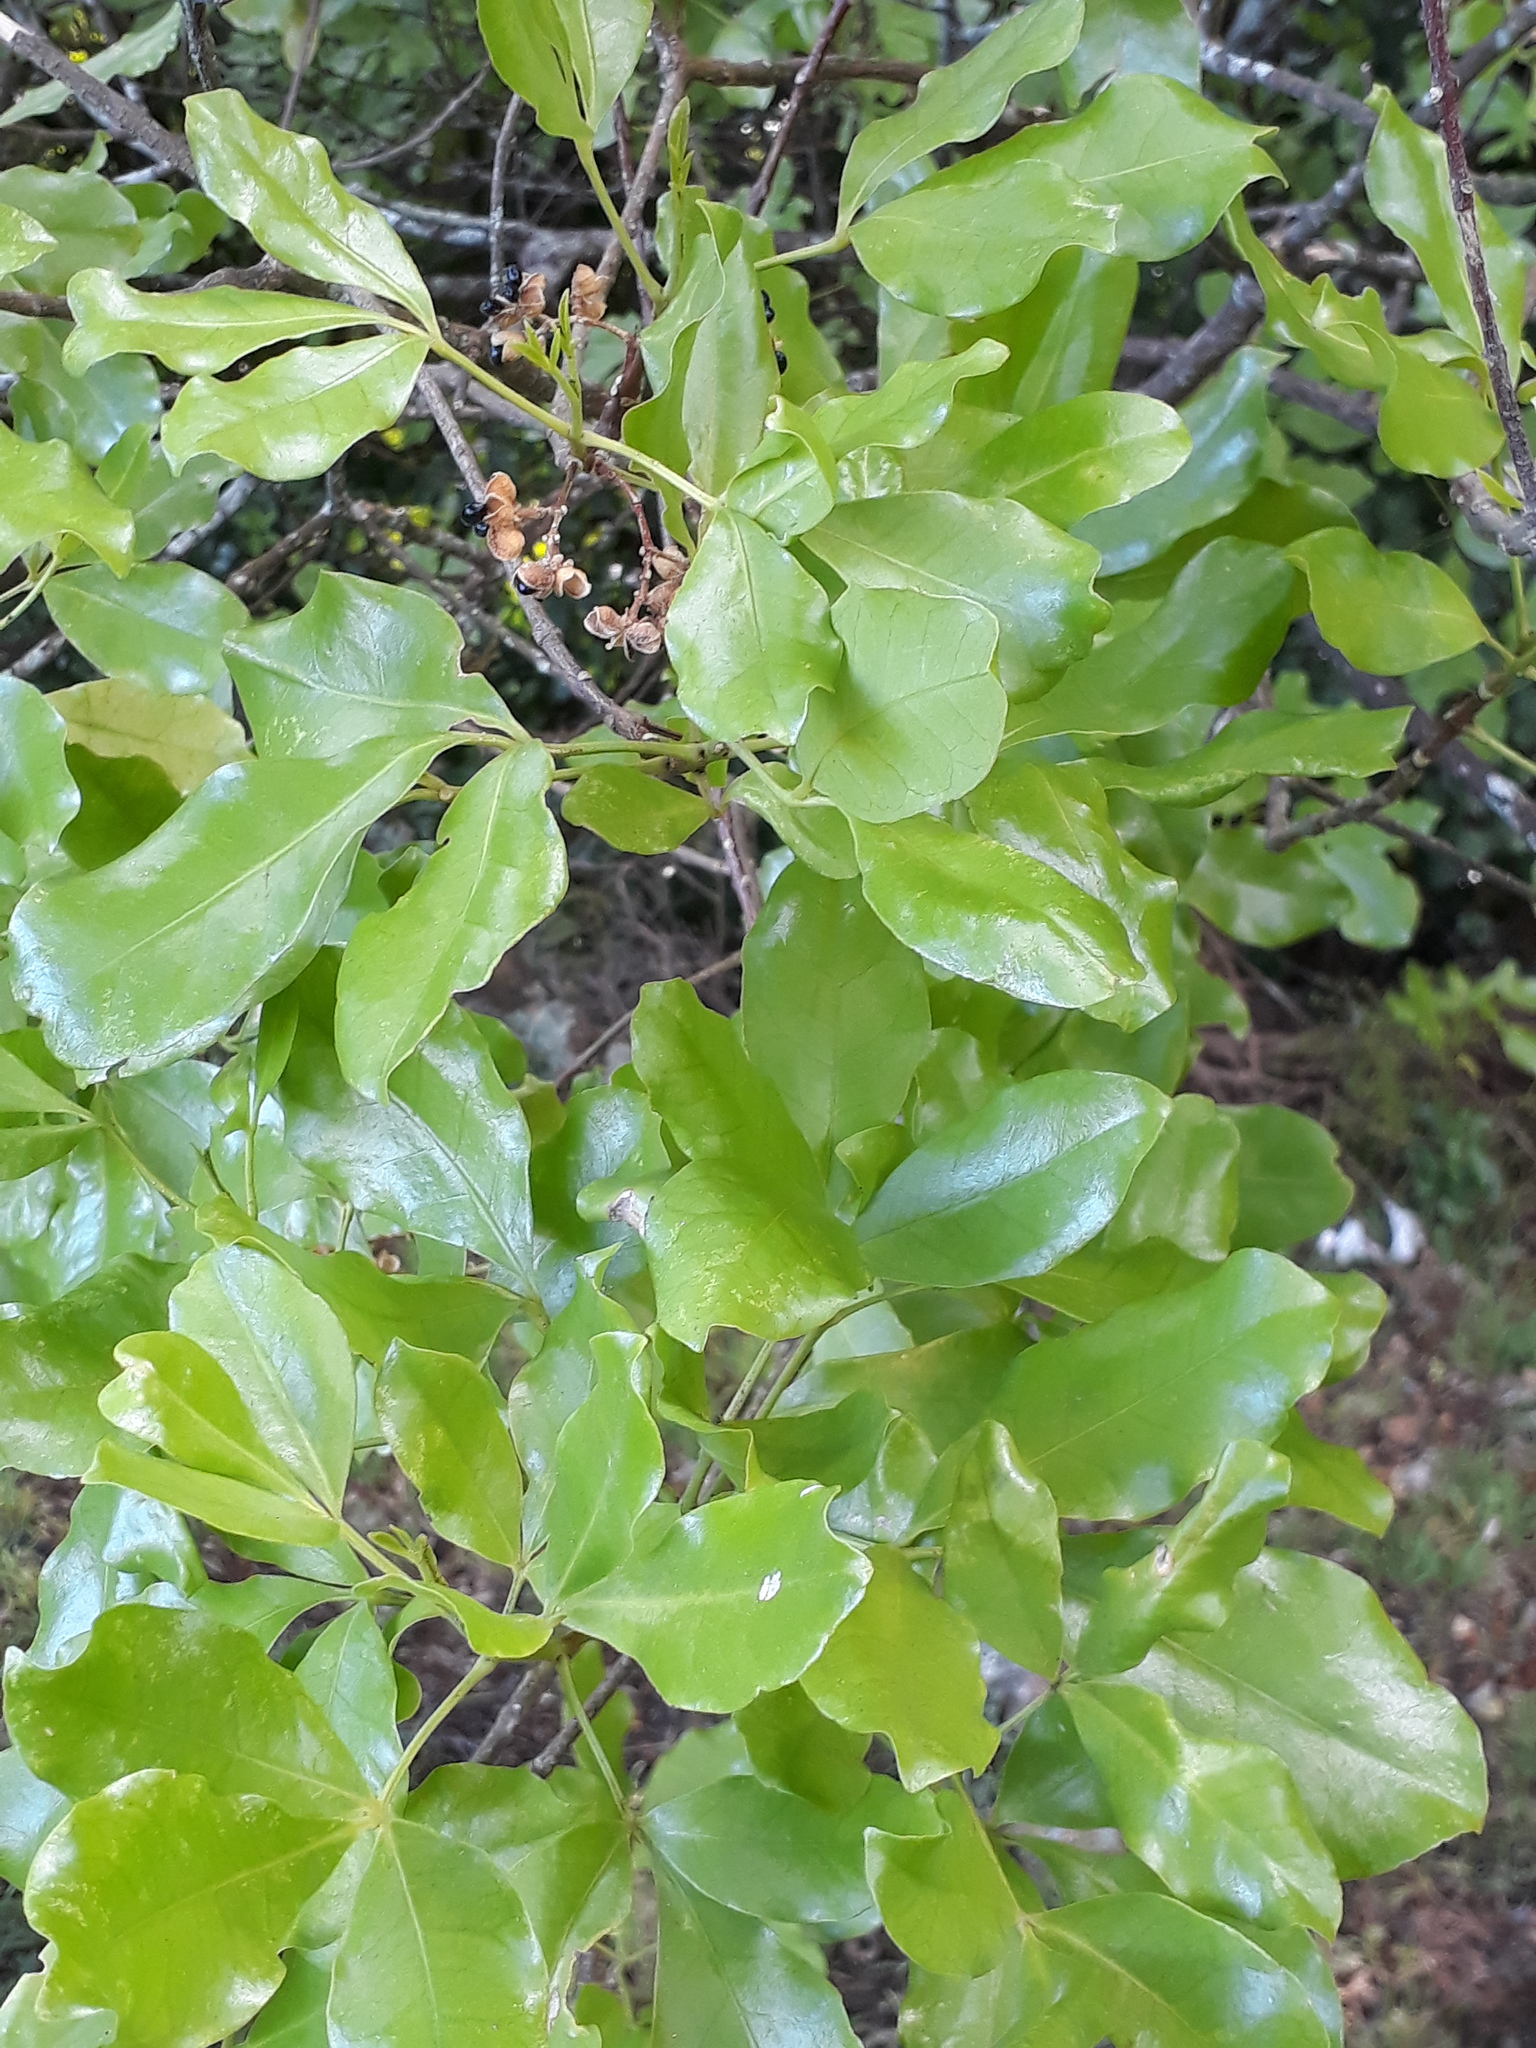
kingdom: Plantae
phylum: Tracheophyta
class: Magnoliopsida
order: Sapindales
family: Rutaceae
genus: Melicope
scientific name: Melicope ternata
